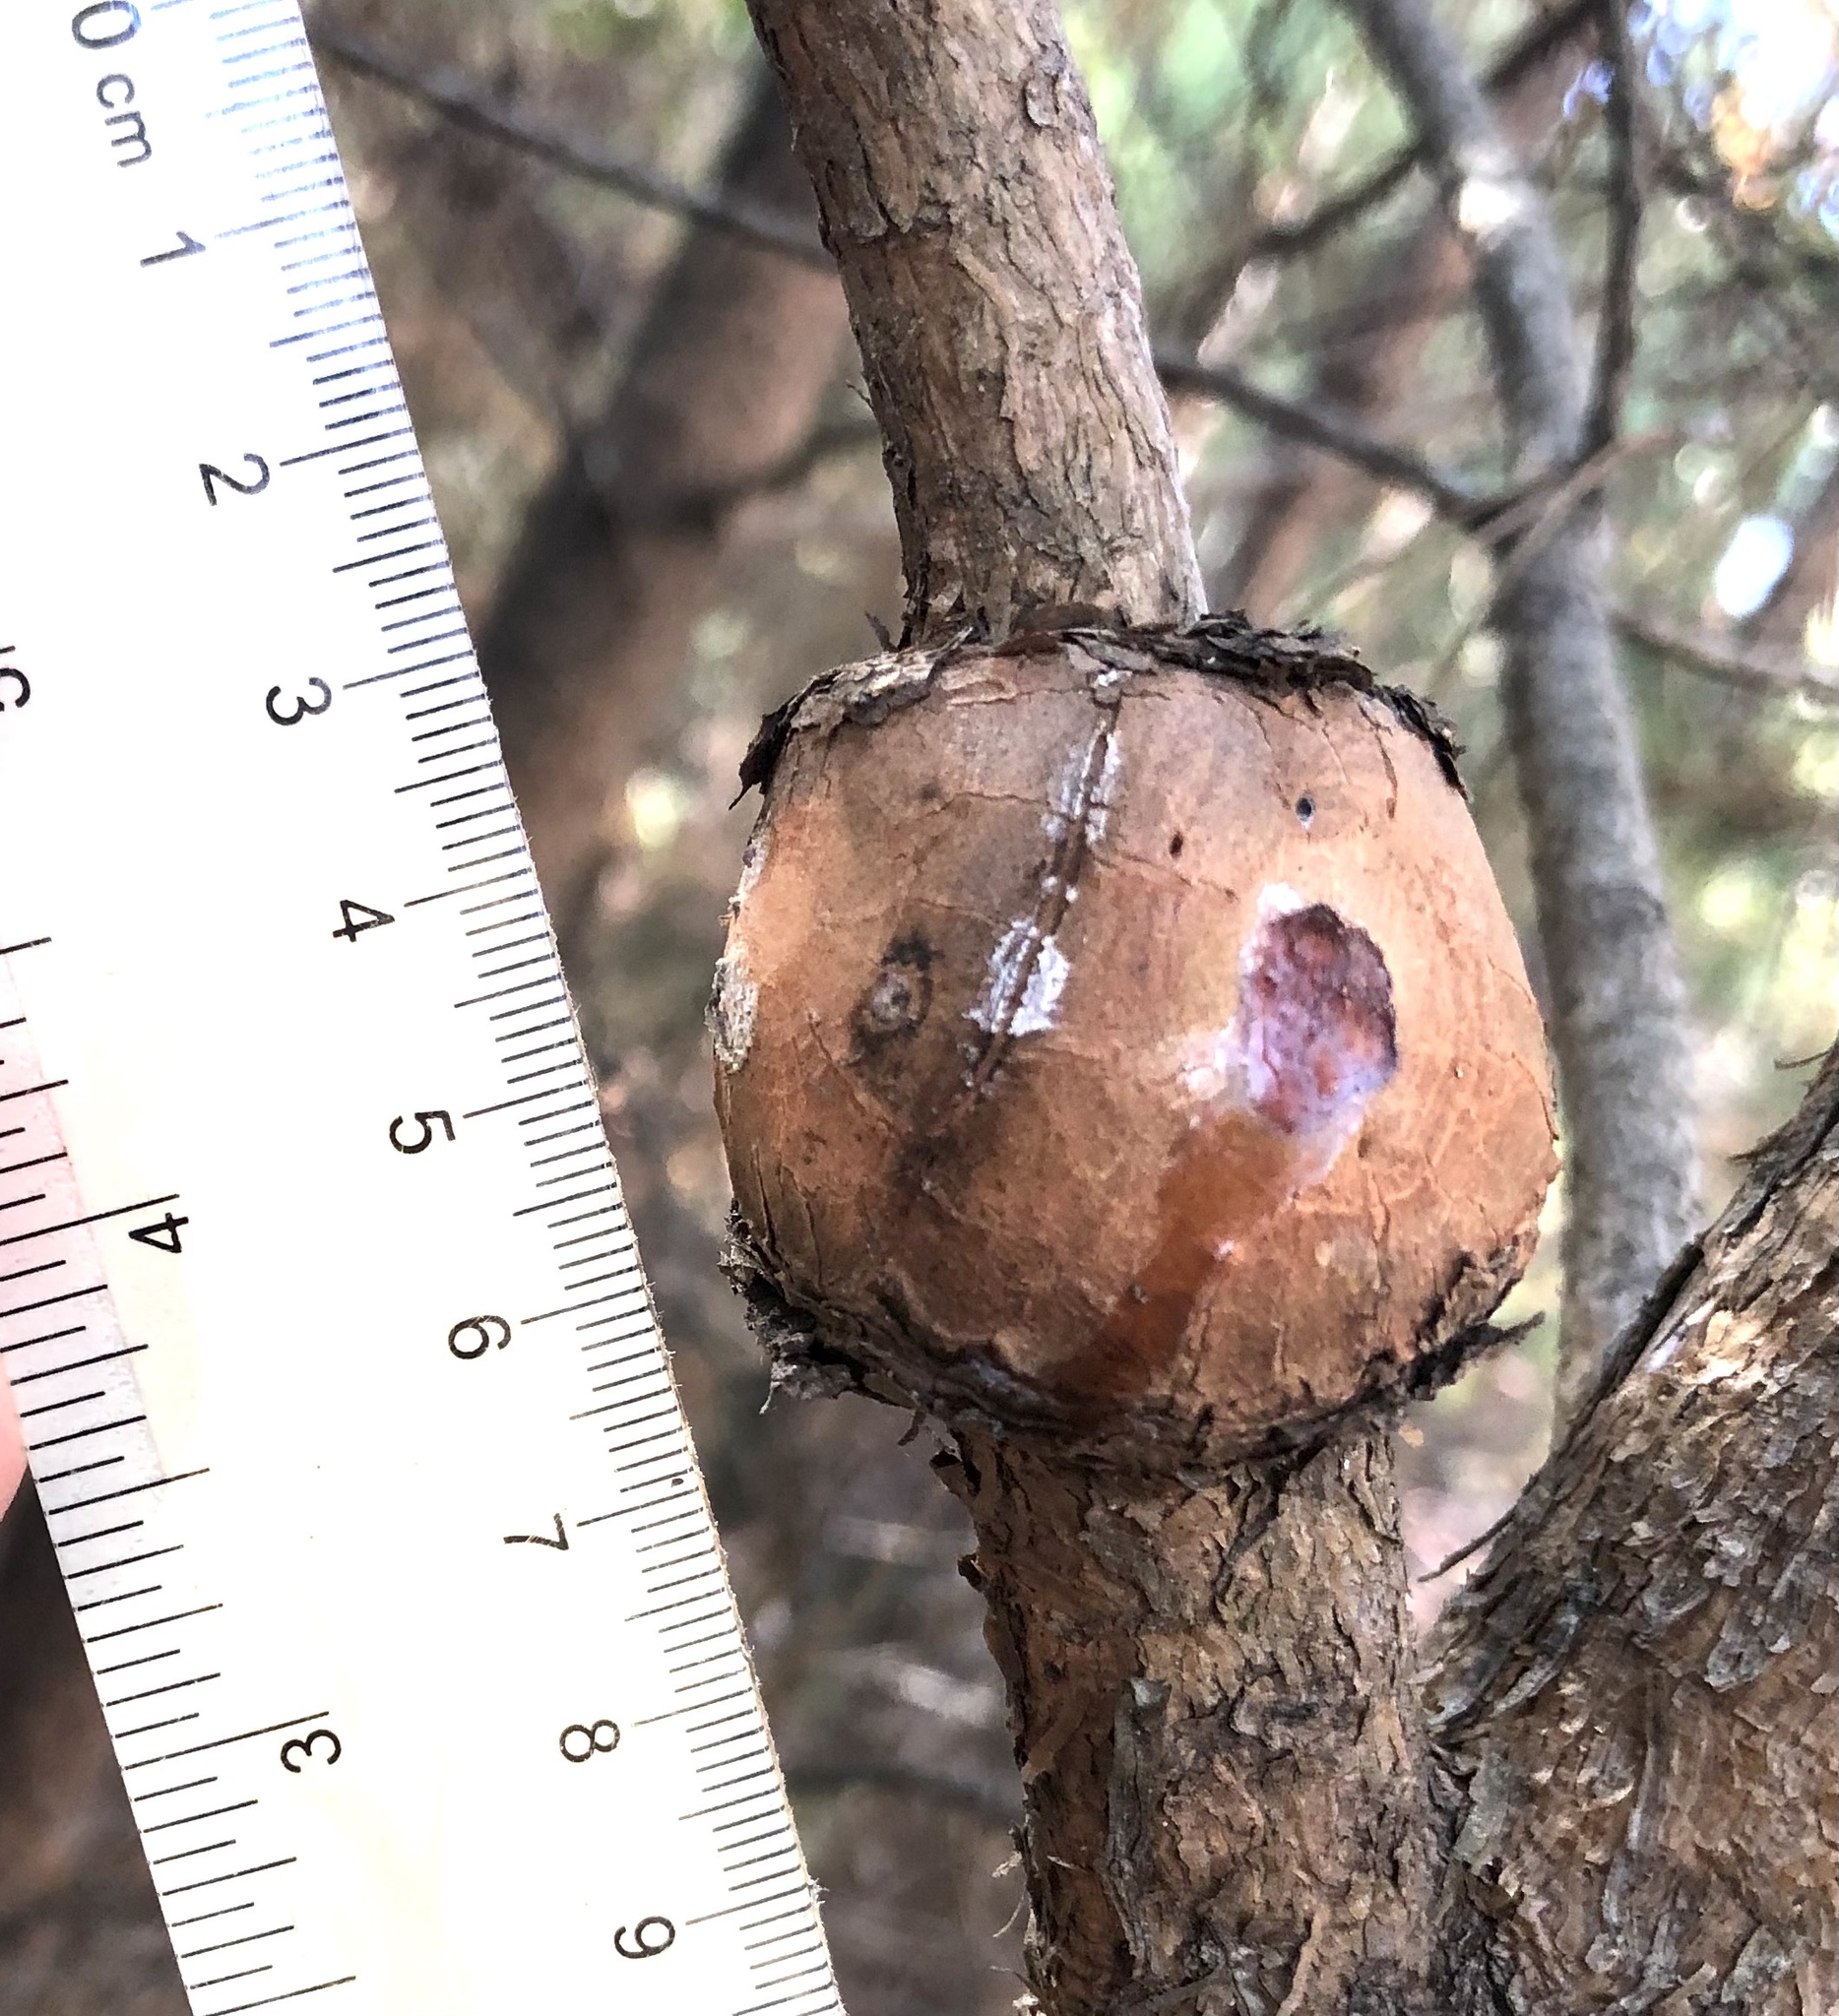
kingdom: Fungi
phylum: Basidiomycota
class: Pucciniomycetes
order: Pucciniales
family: Cronartiaceae
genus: Cronartium
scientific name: Cronartium quercuum
